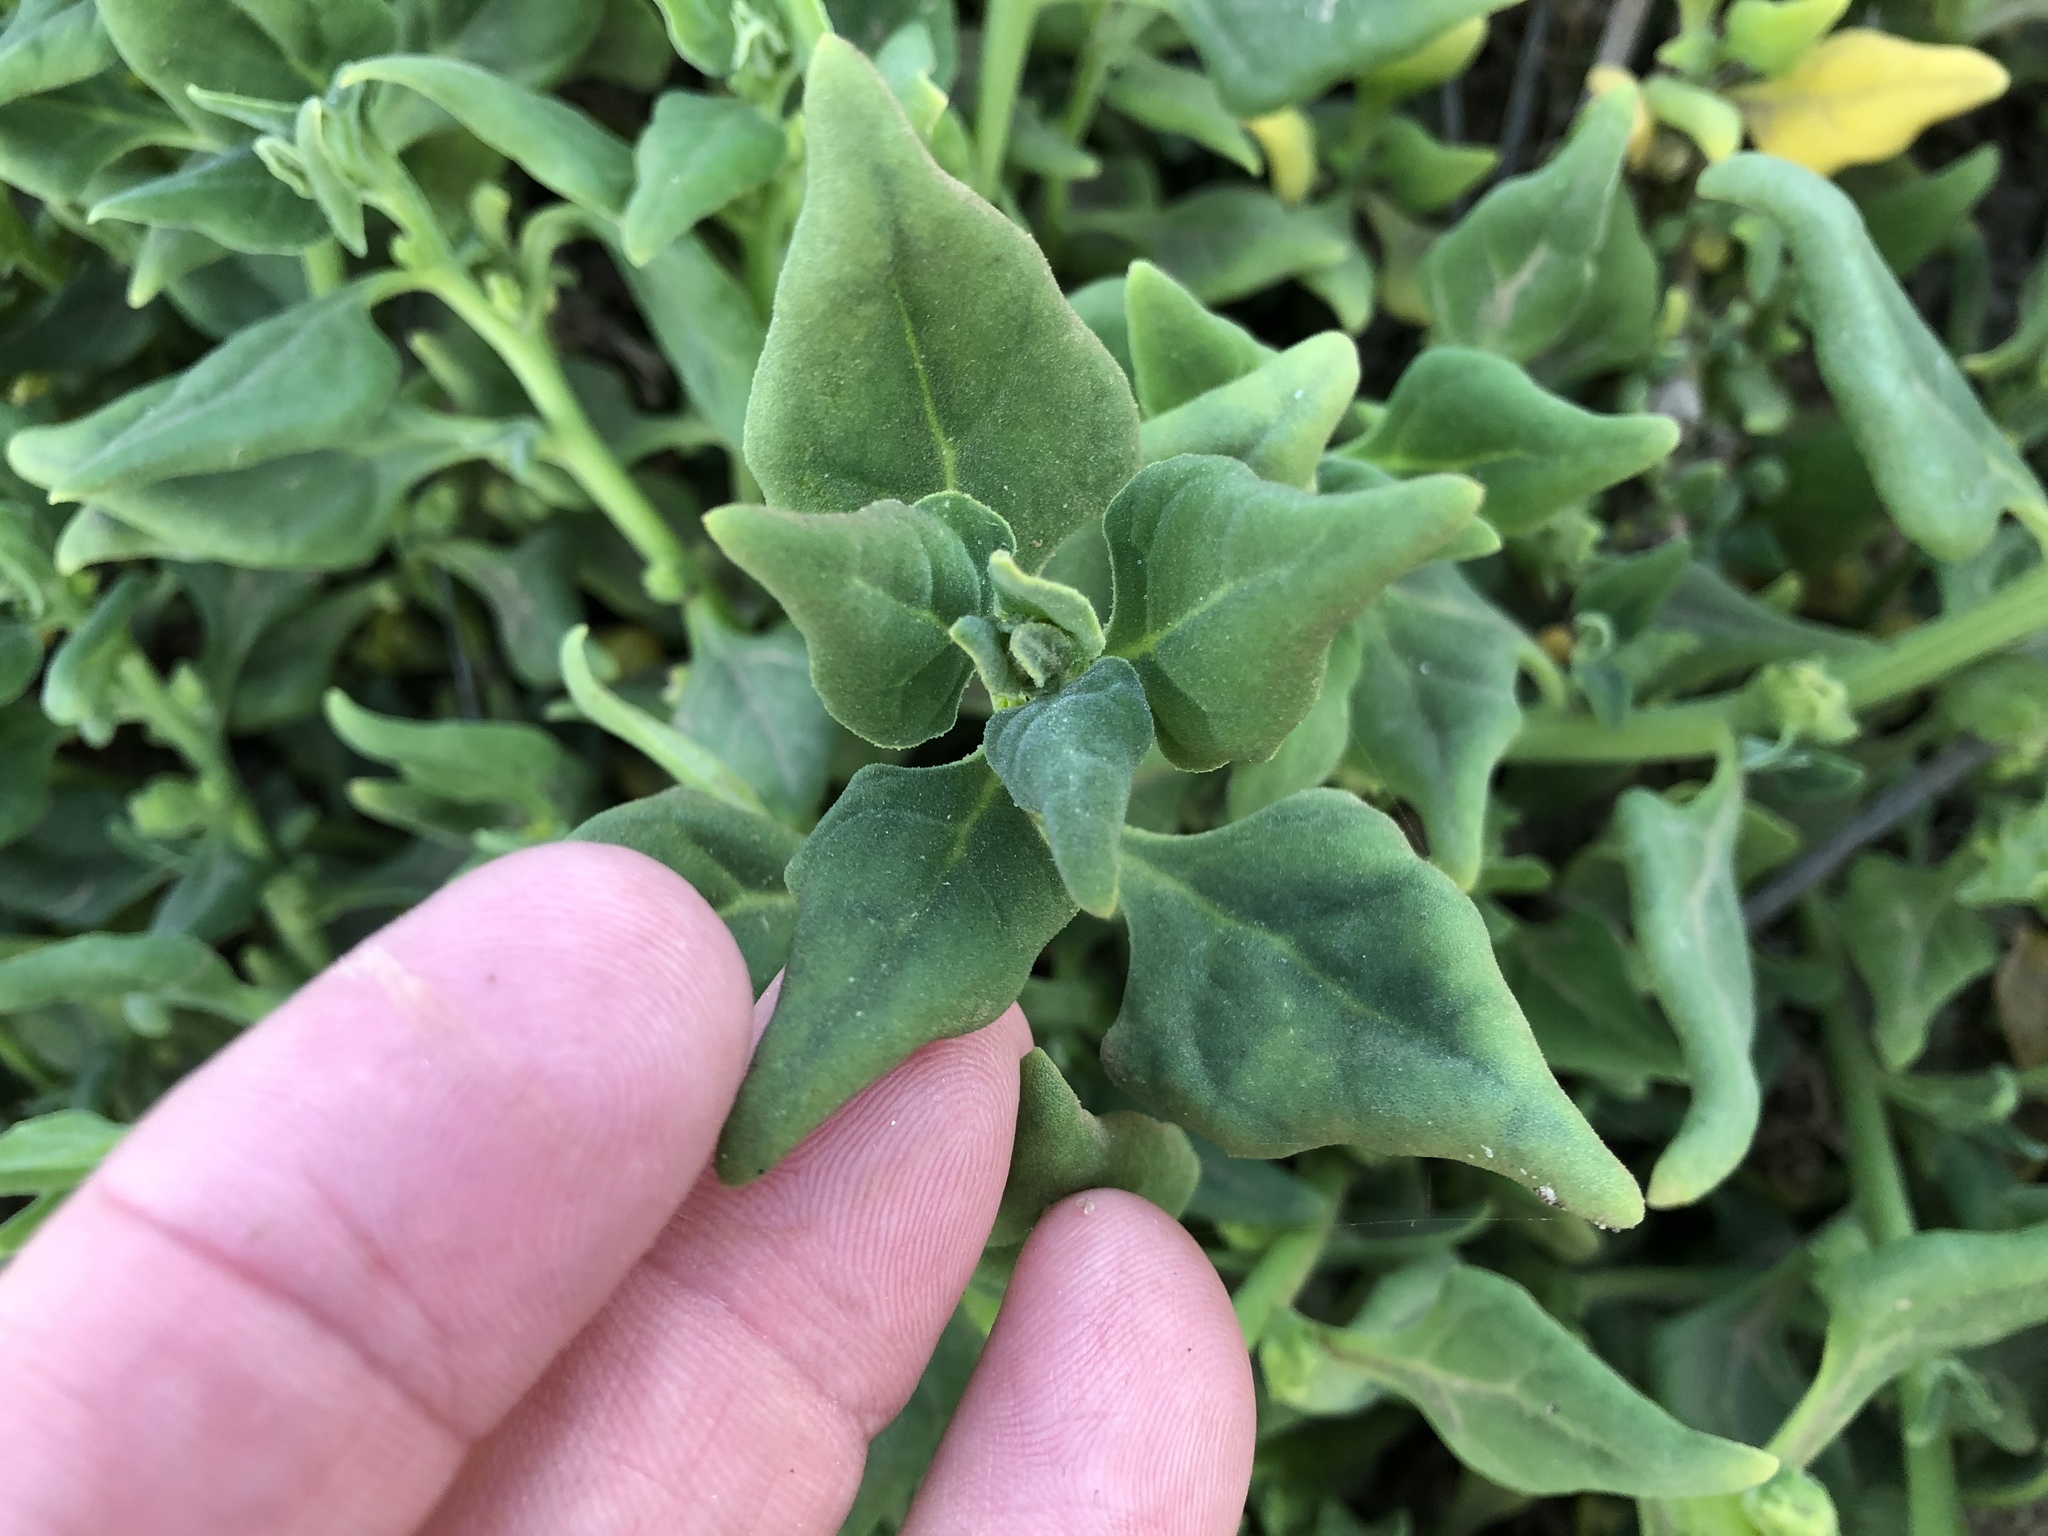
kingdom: Plantae
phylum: Tracheophyta
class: Magnoliopsida
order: Caryophyllales
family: Aizoaceae
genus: Tetragonia
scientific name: Tetragonia tetragonoides
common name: New zealand-spinach
